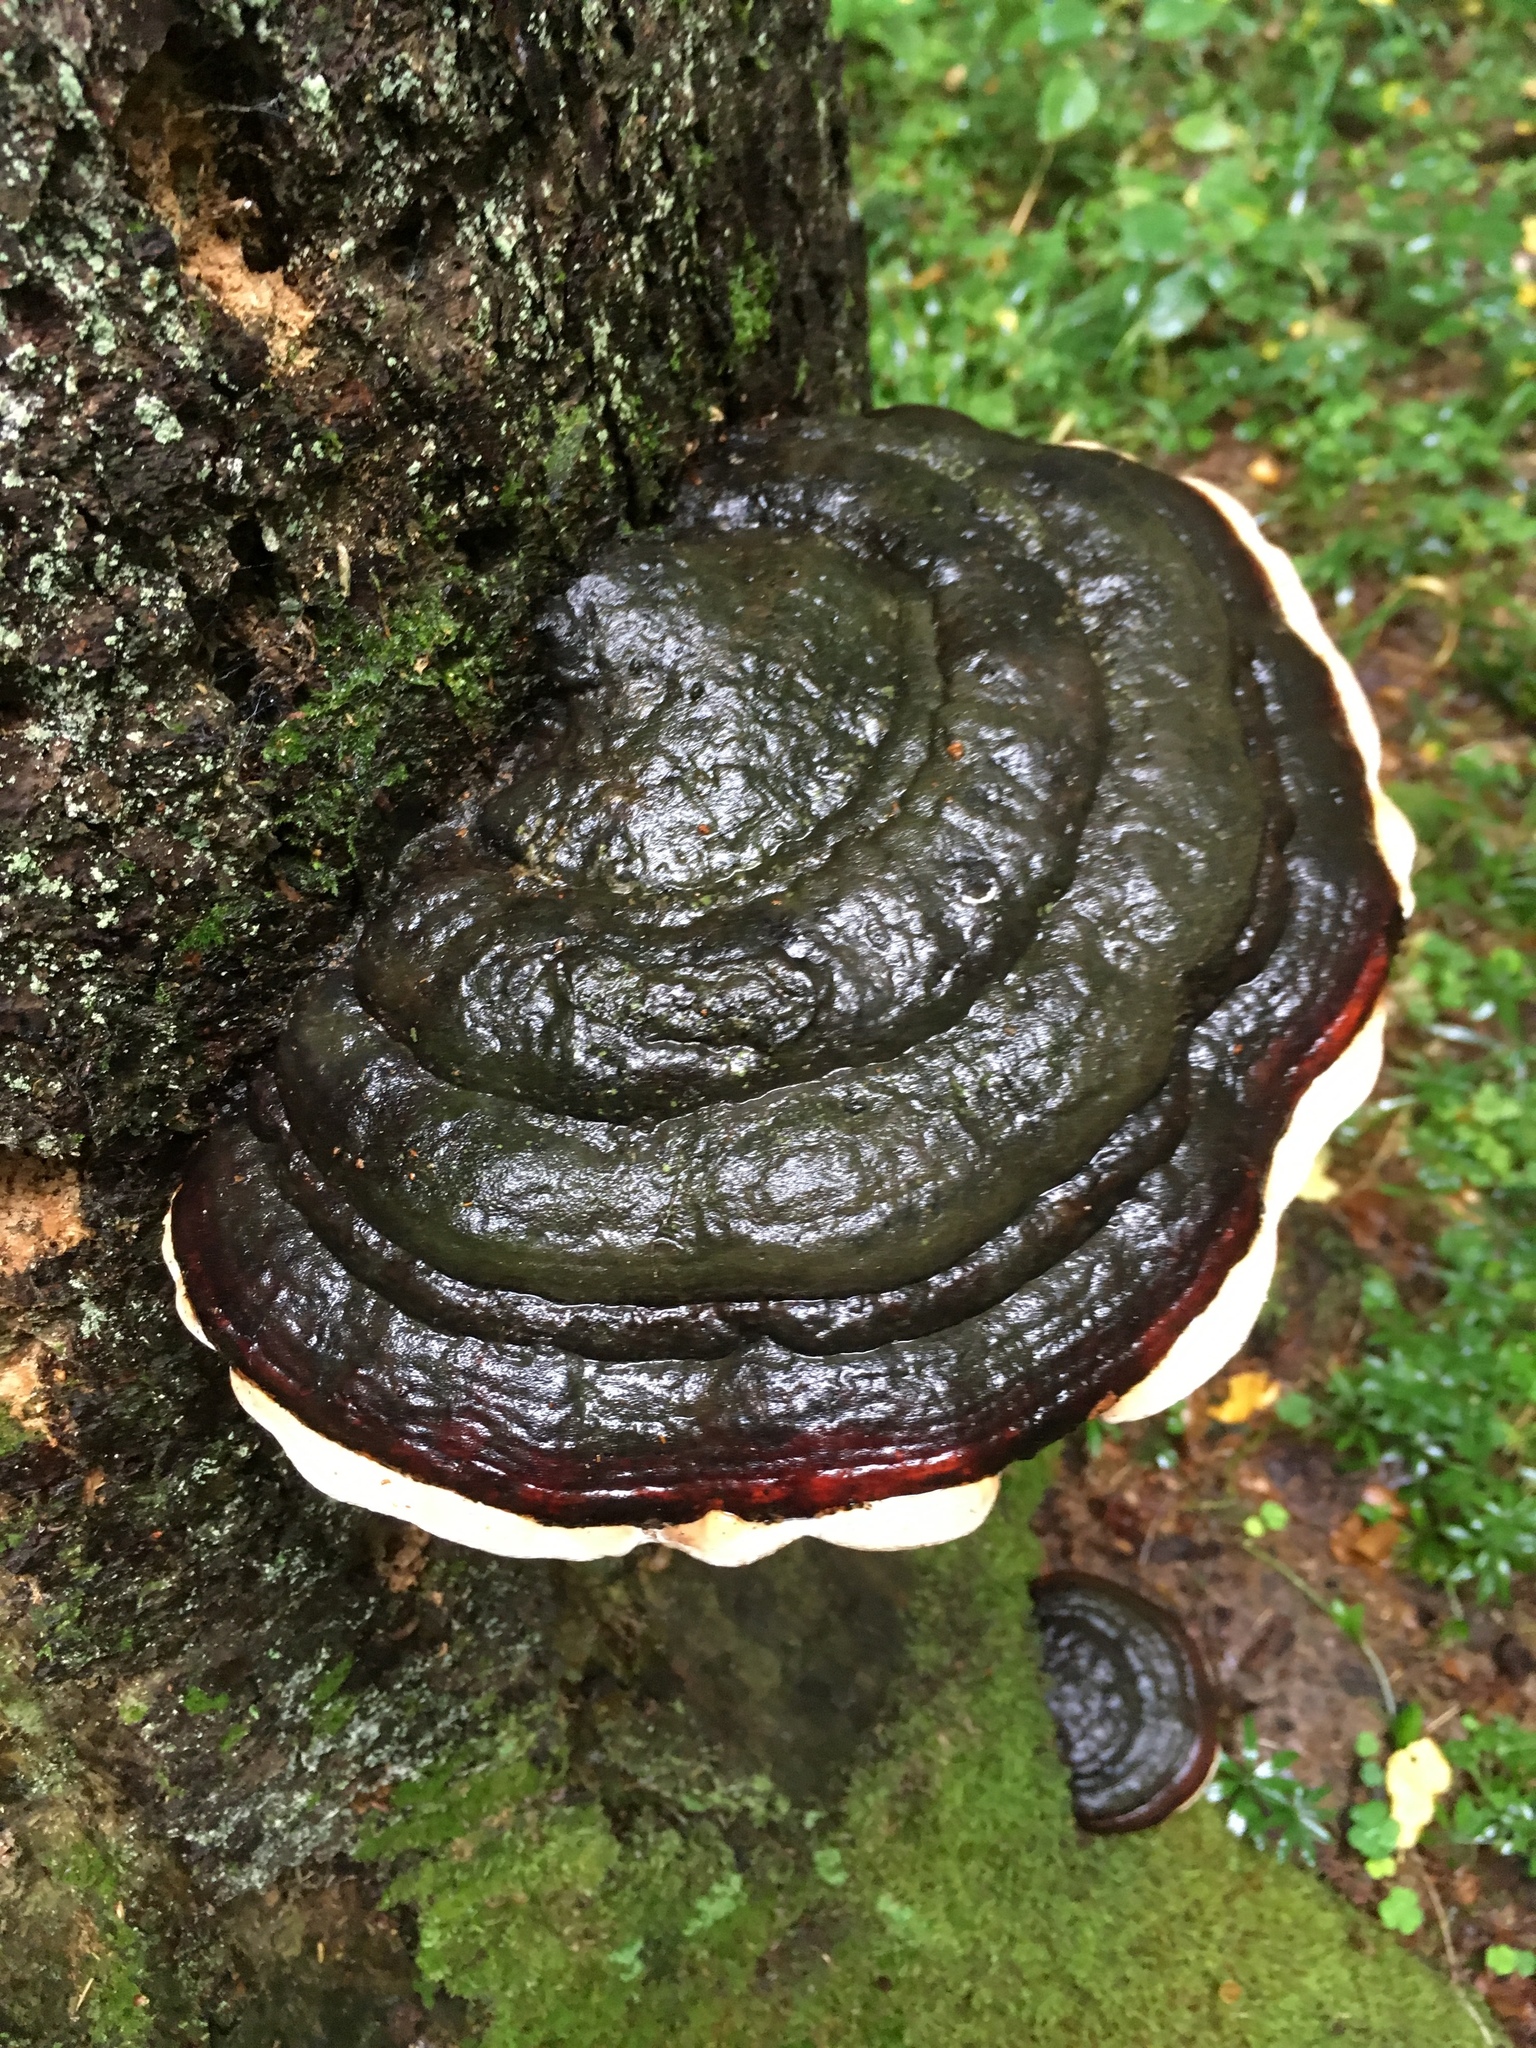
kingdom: Fungi
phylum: Basidiomycota
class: Agaricomycetes
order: Polyporales
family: Fomitopsidaceae
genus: Fomitopsis
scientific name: Fomitopsis pinicola
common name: Red-belted bracket
